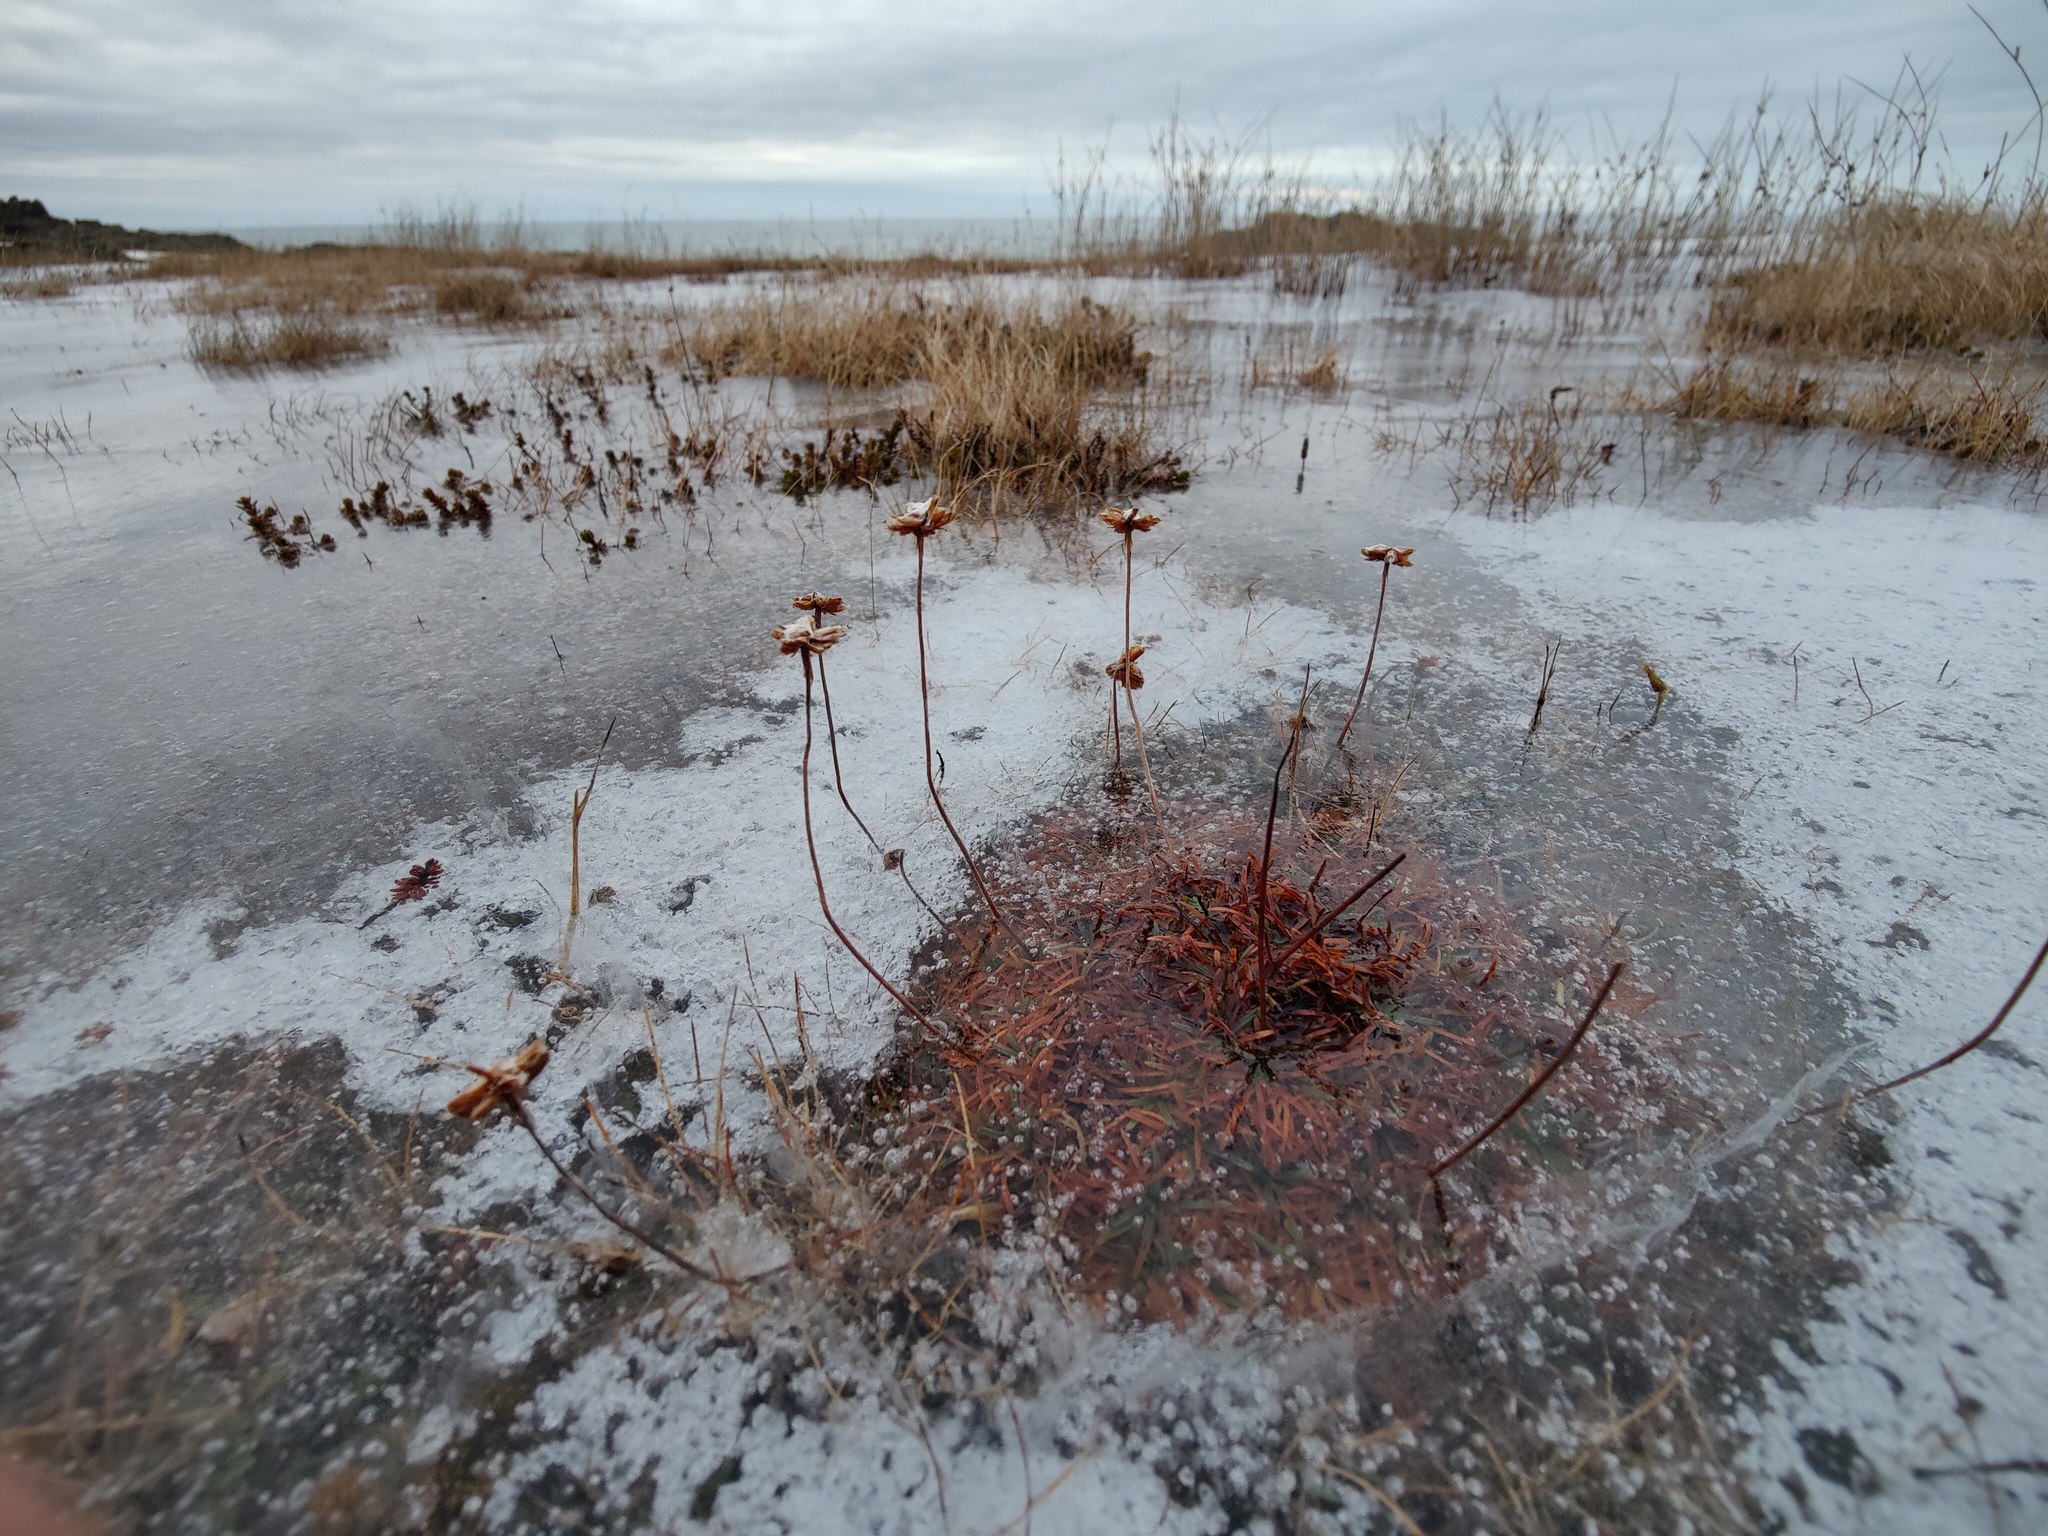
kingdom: Plantae
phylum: Tracheophyta
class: Magnoliopsida
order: Caryophyllales
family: Plumbaginaceae
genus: Armeria
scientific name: Armeria maritima
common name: Thrift
